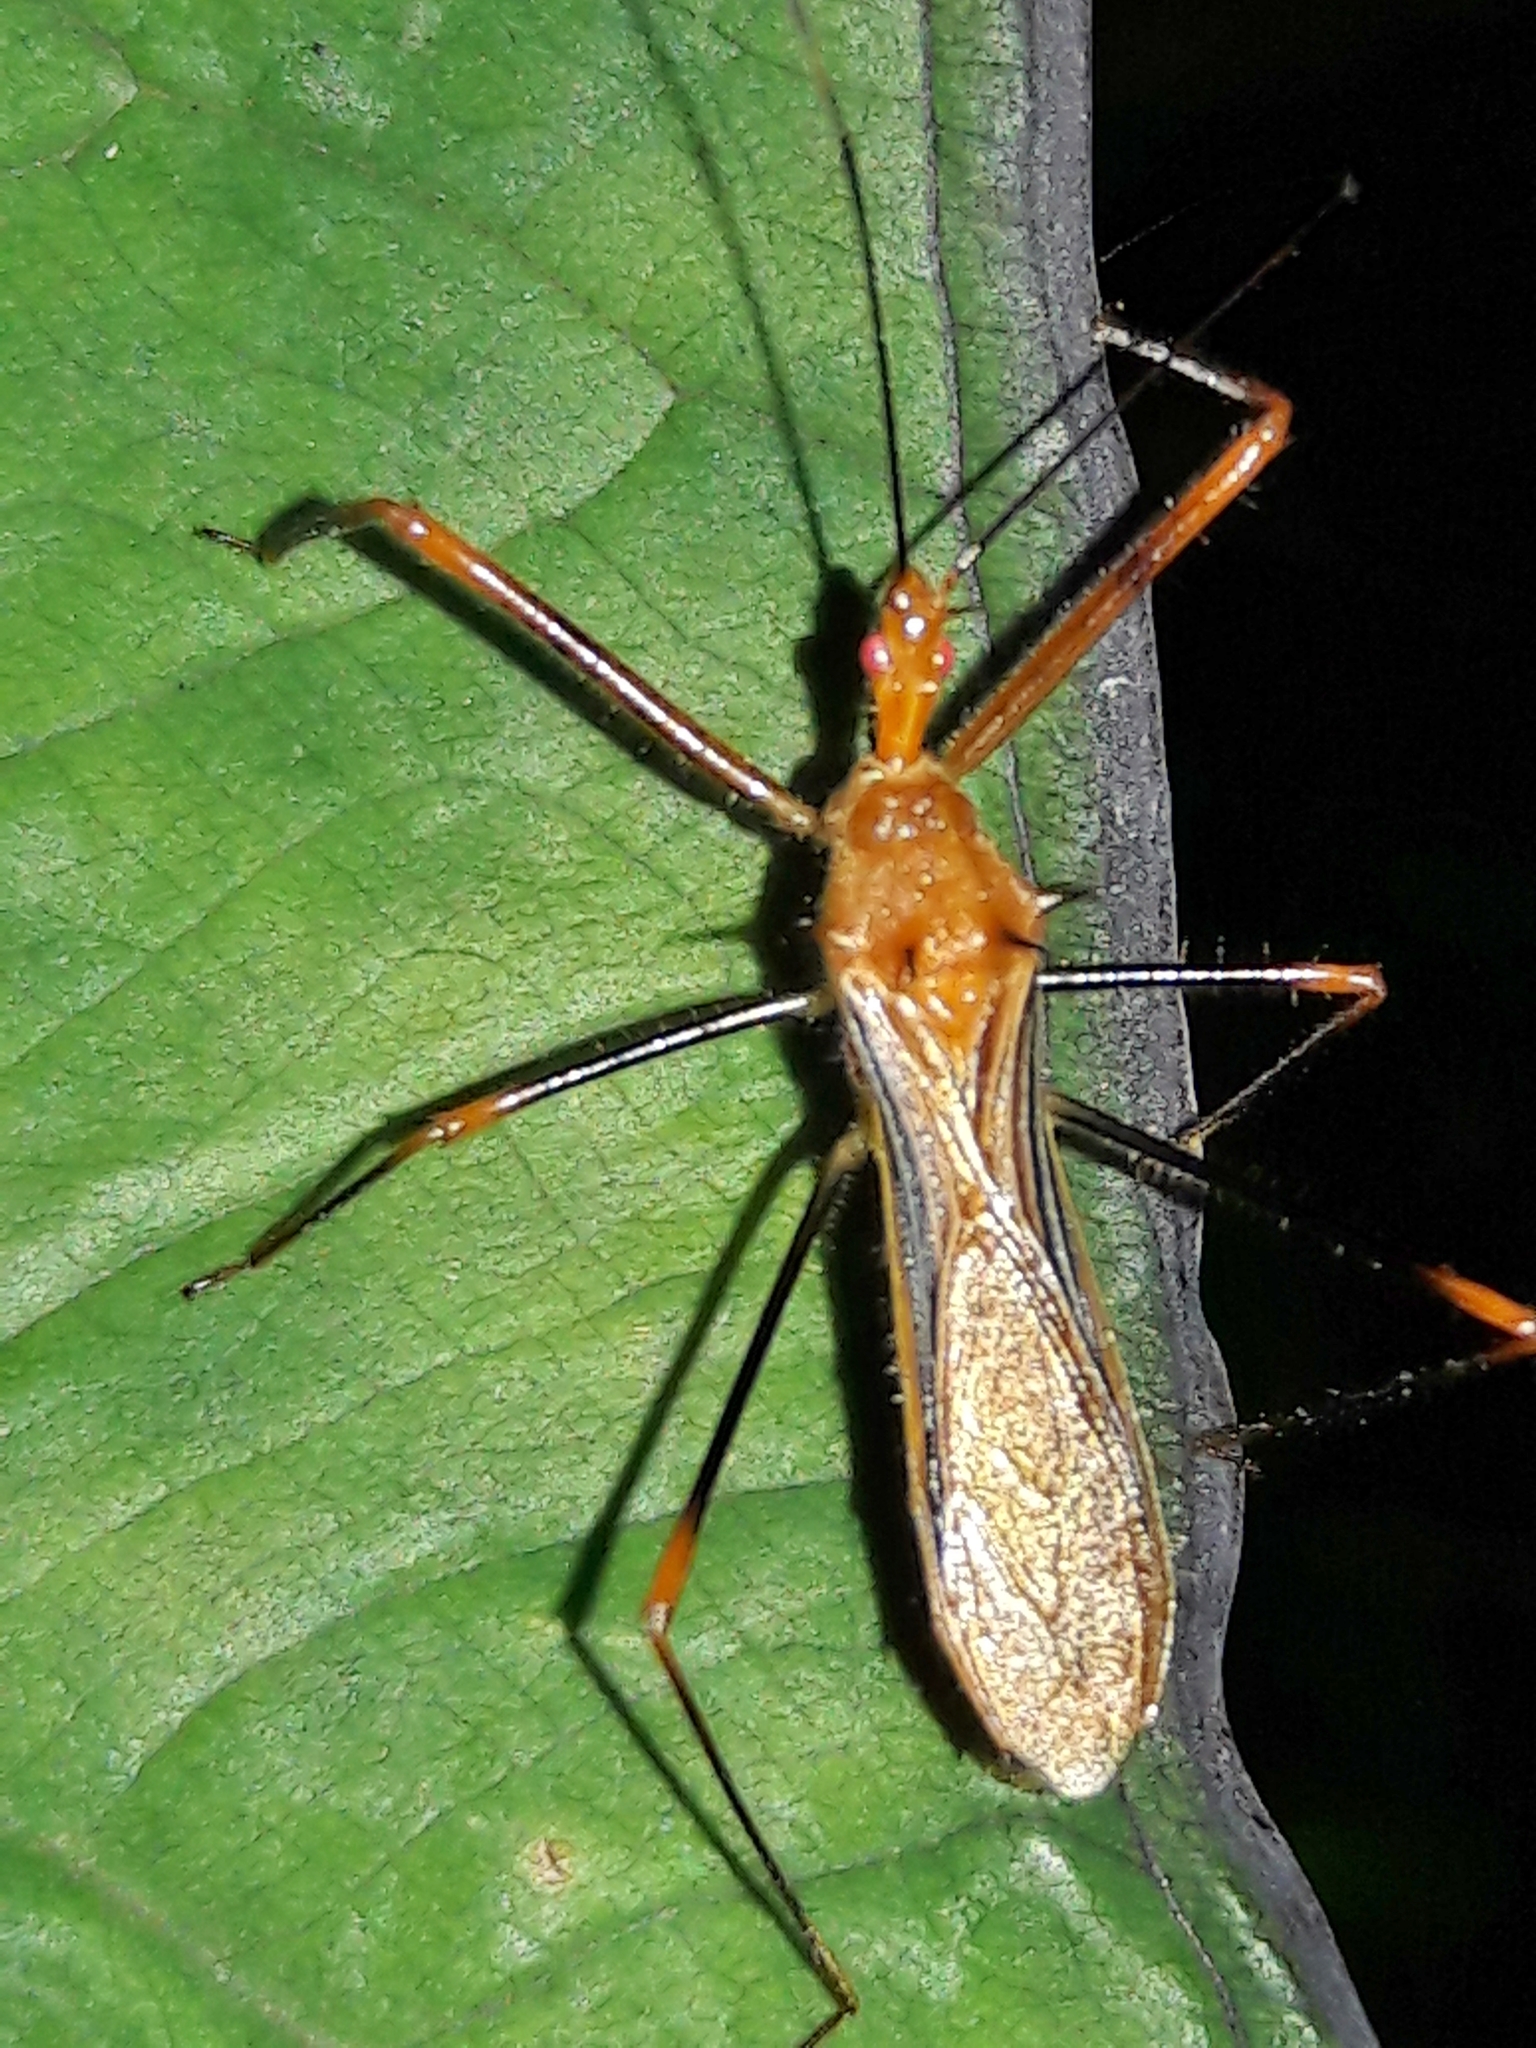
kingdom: Animalia
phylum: Arthropoda
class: Insecta
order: Hemiptera
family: Reduviidae
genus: Ricolla
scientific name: Ricolla quadrispinosa
